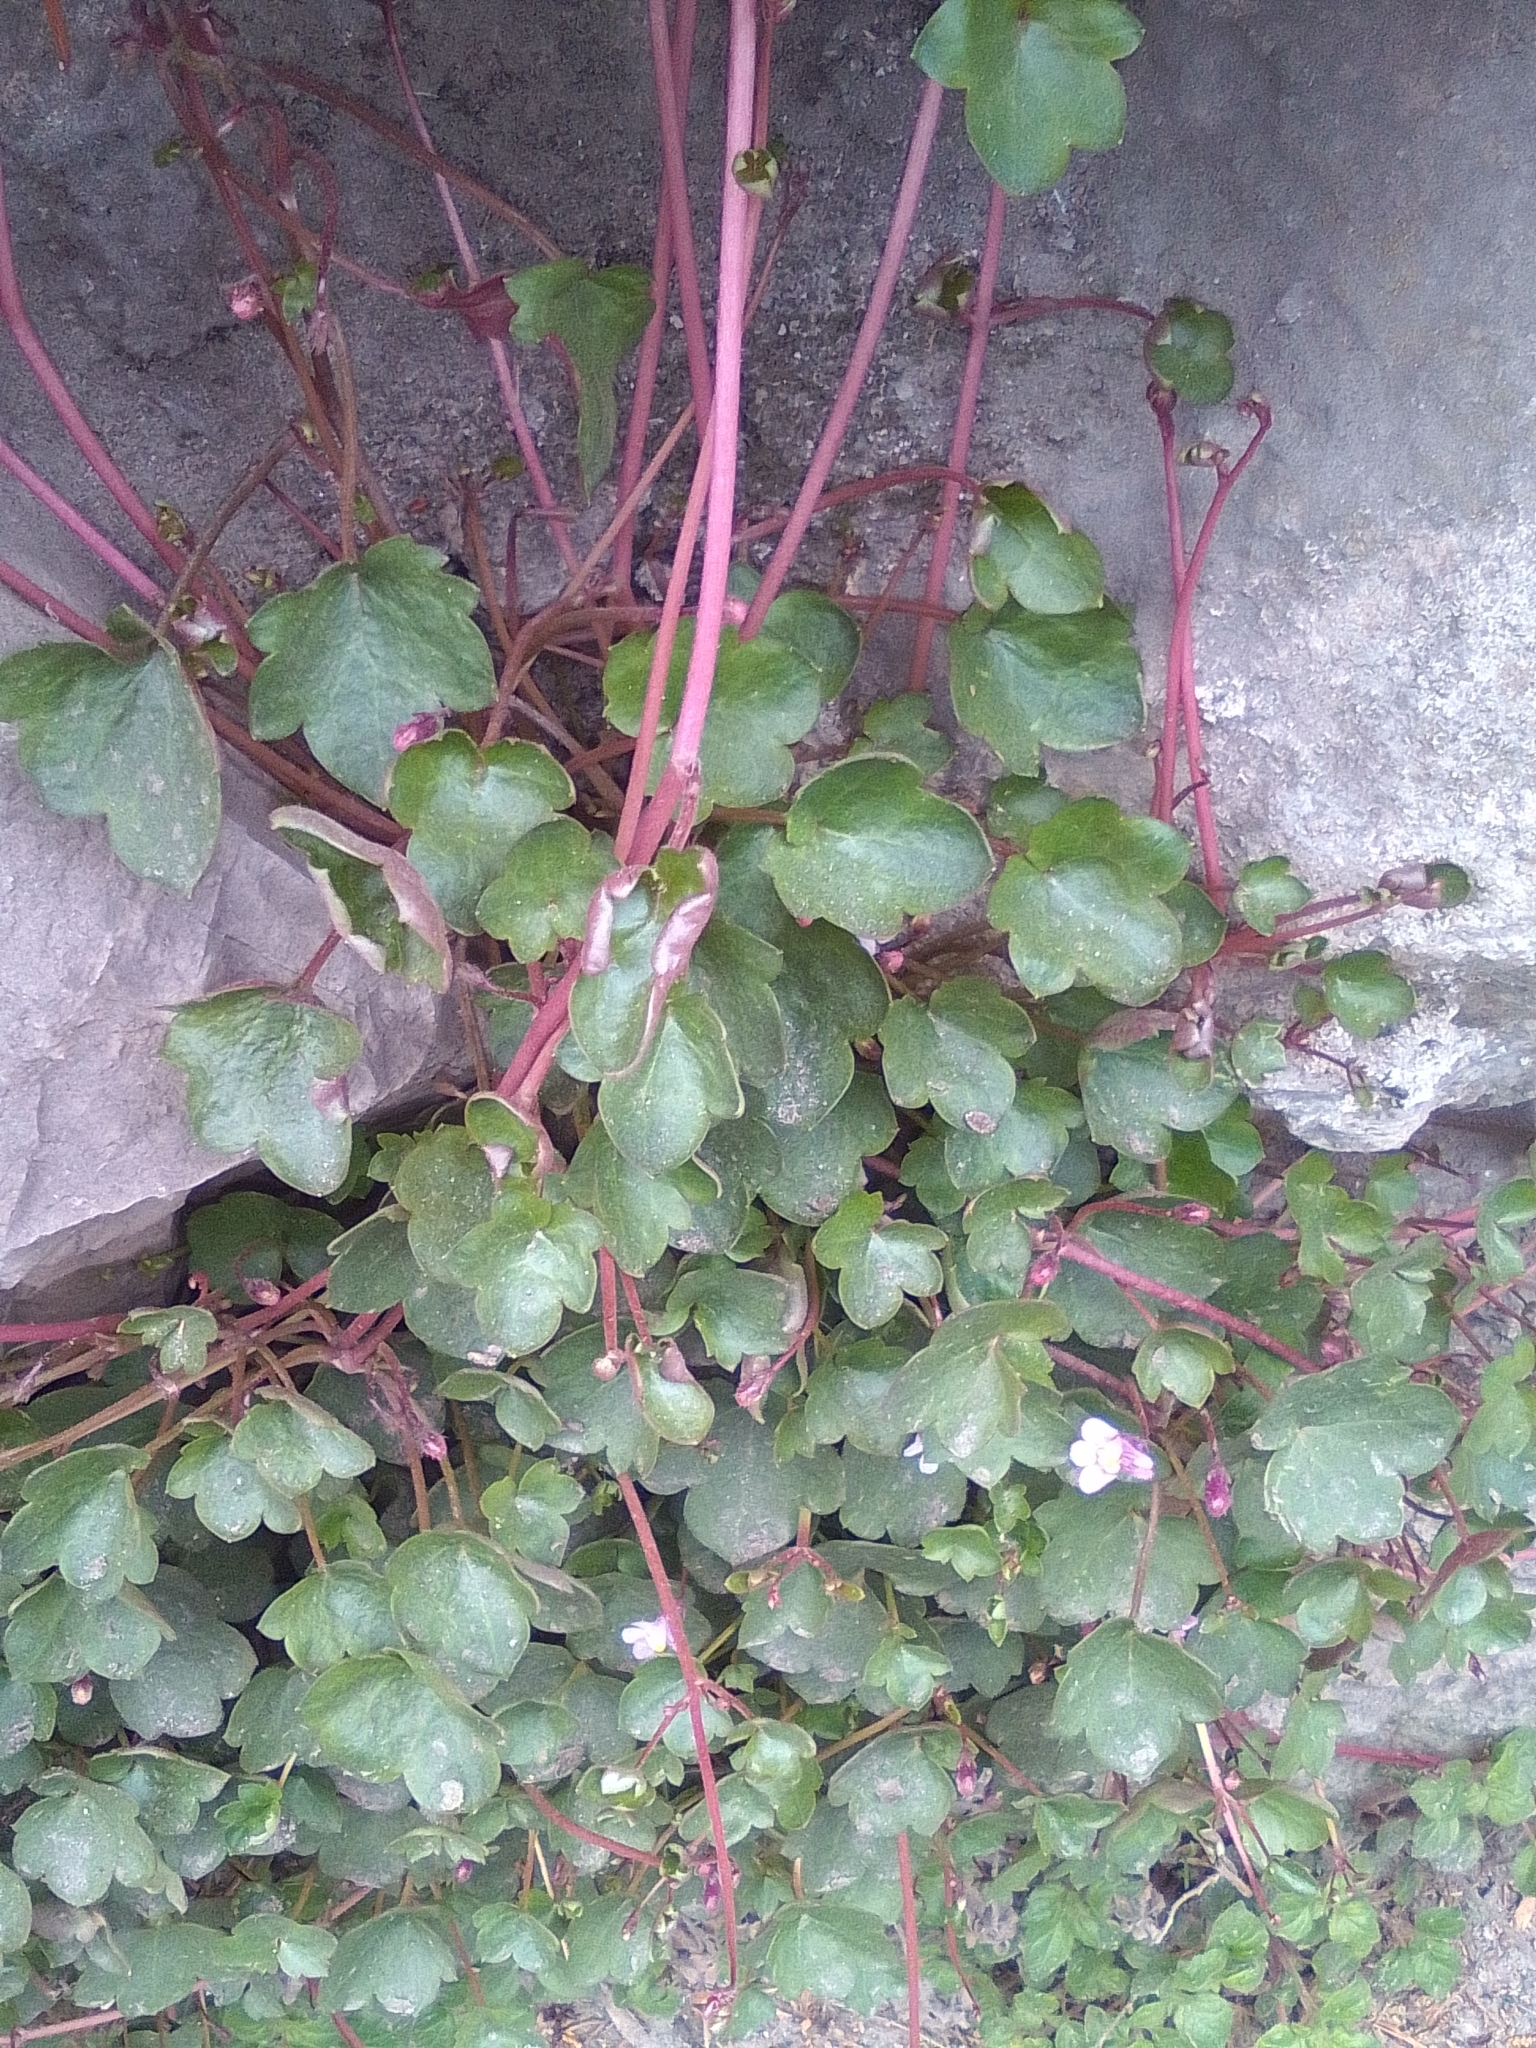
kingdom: Plantae
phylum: Tracheophyta
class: Magnoliopsida
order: Lamiales
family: Plantaginaceae
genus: Cymbalaria
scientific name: Cymbalaria muralis
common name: Ivy-leaved toadflax
